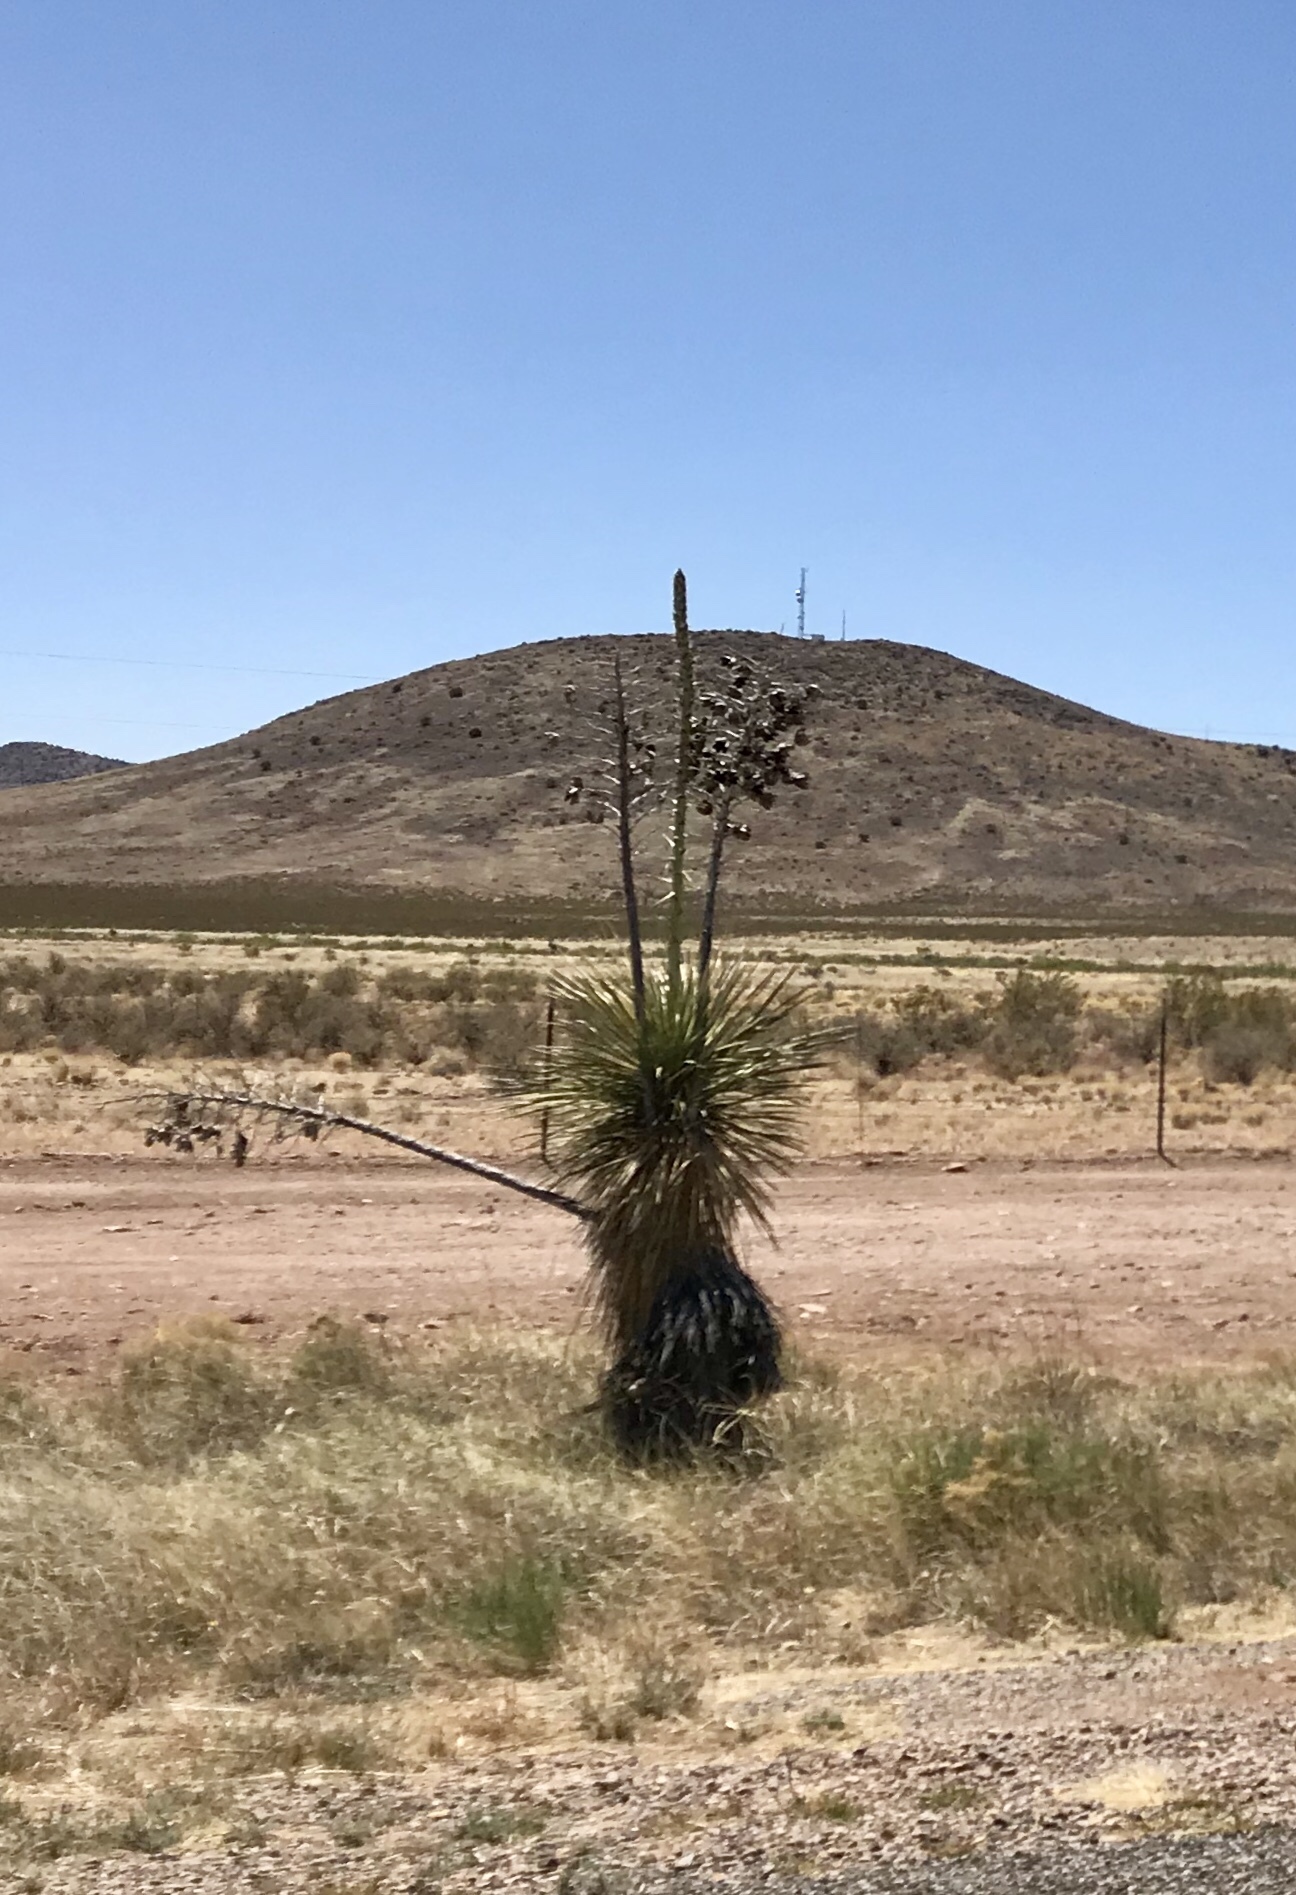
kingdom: Plantae
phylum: Tracheophyta
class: Liliopsida
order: Asparagales
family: Asparagaceae
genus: Yucca
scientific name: Yucca elata
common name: Palmella
